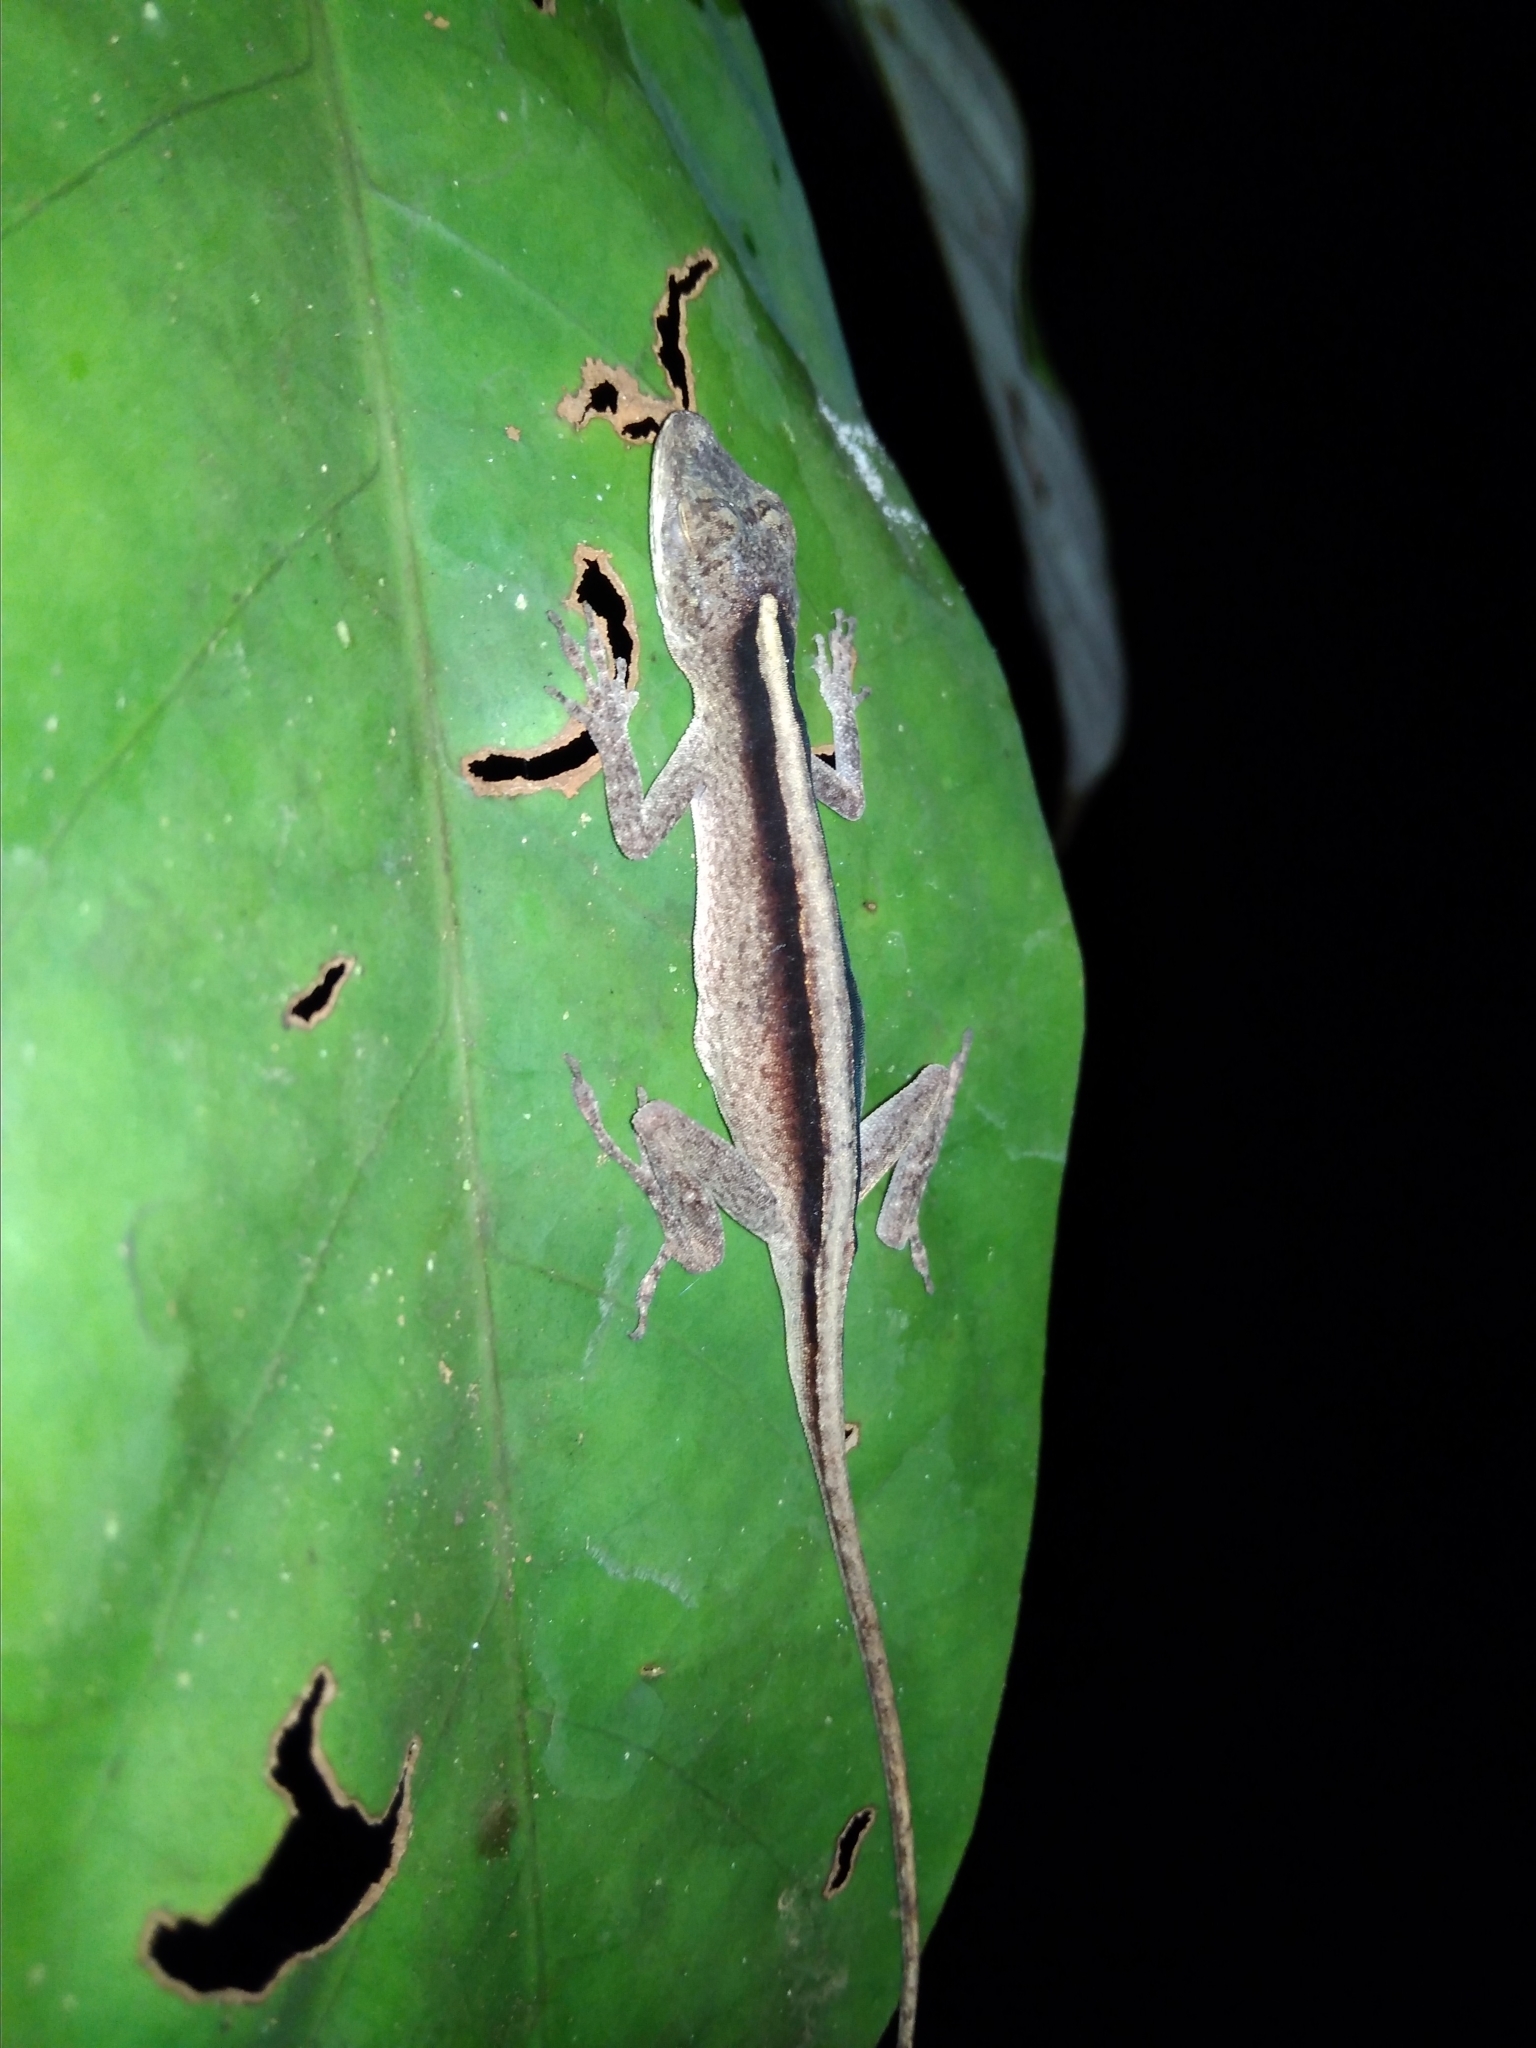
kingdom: Animalia
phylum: Chordata
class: Squamata
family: Dactyloidae
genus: Anolis
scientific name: Anolis fuscoauratus
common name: Brown-eared anole
